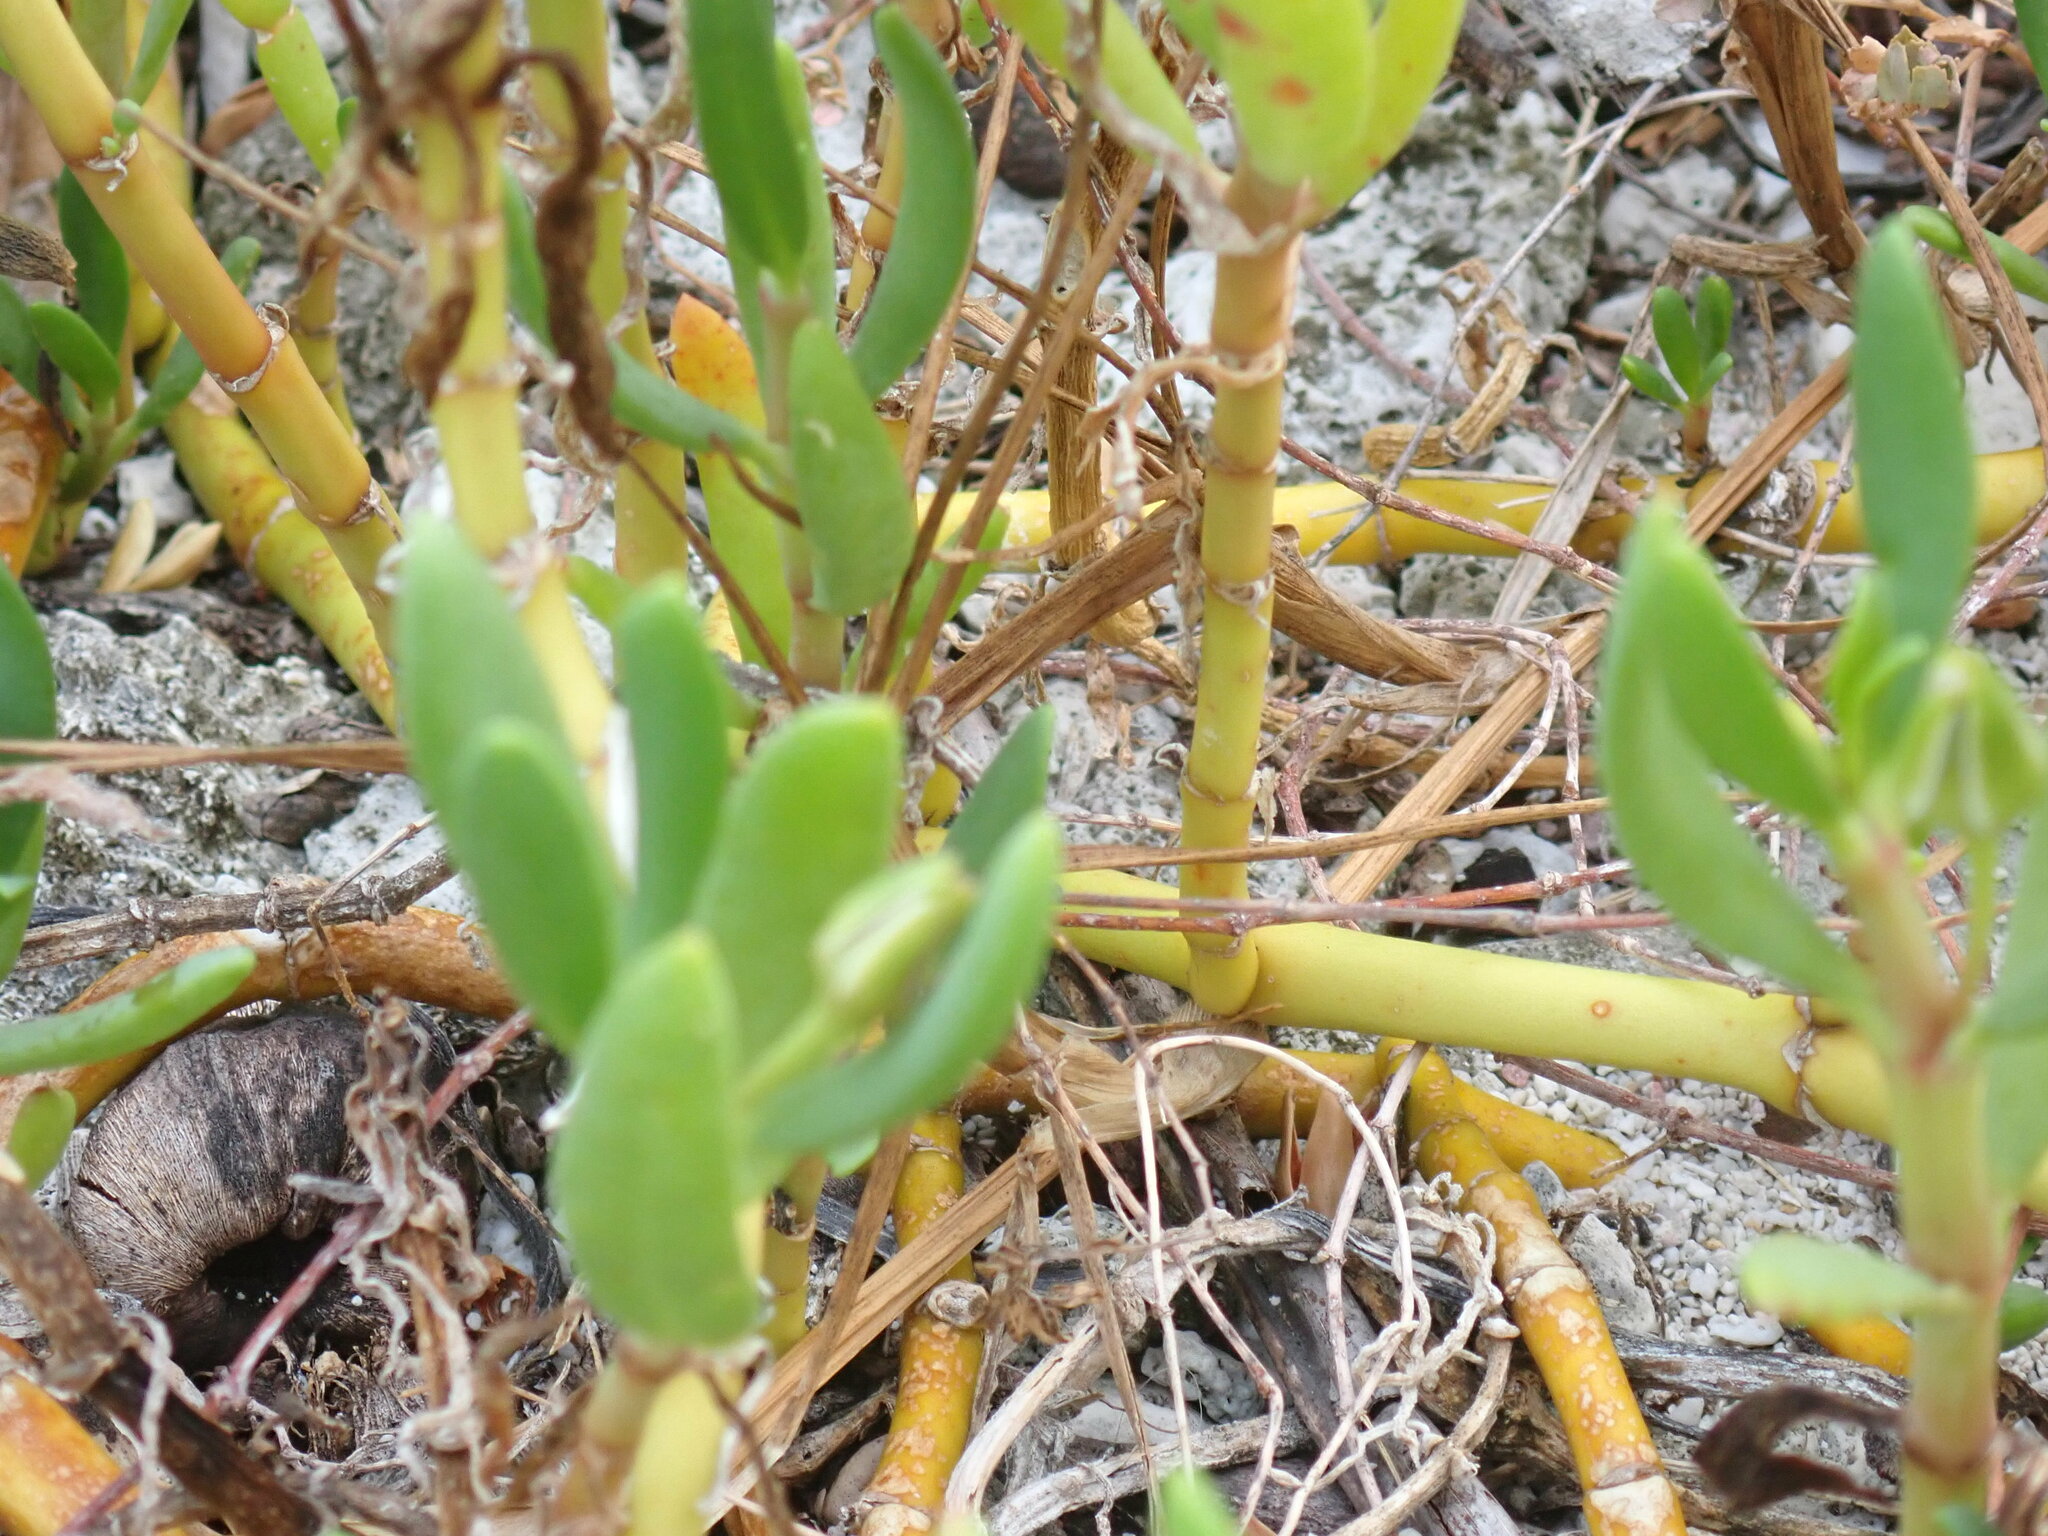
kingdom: Plantae
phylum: Tracheophyta
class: Magnoliopsida
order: Caryophyllales
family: Aizoaceae
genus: Sesuvium
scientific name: Sesuvium portulacastrum
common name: Sea-purslane
